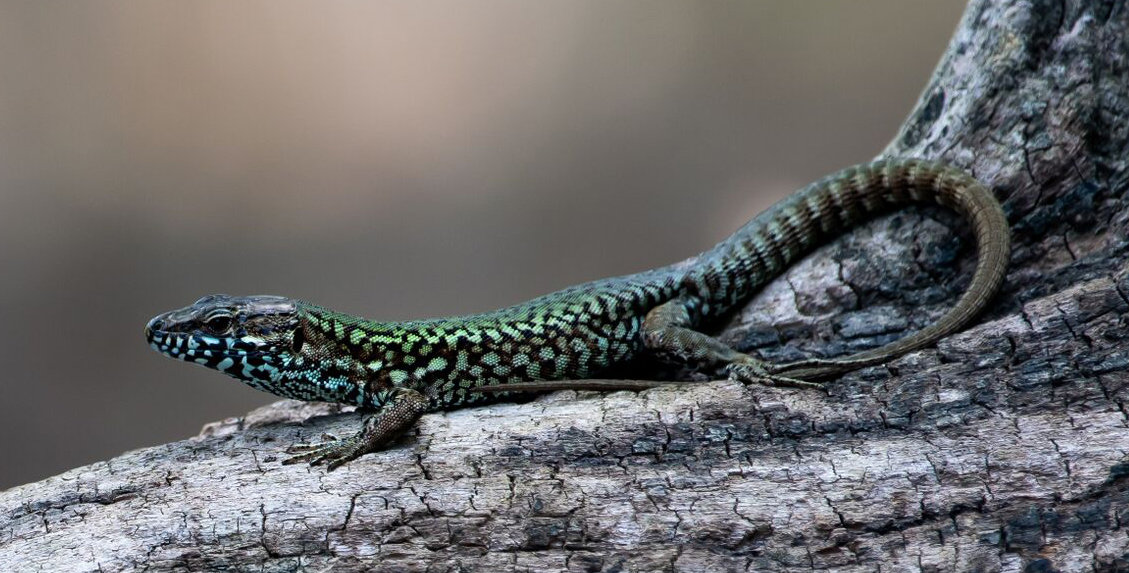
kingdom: Animalia
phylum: Chordata
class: Squamata
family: Lacertidae
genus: Podarcis
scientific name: Podarcis muralis
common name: Common wall lizard
